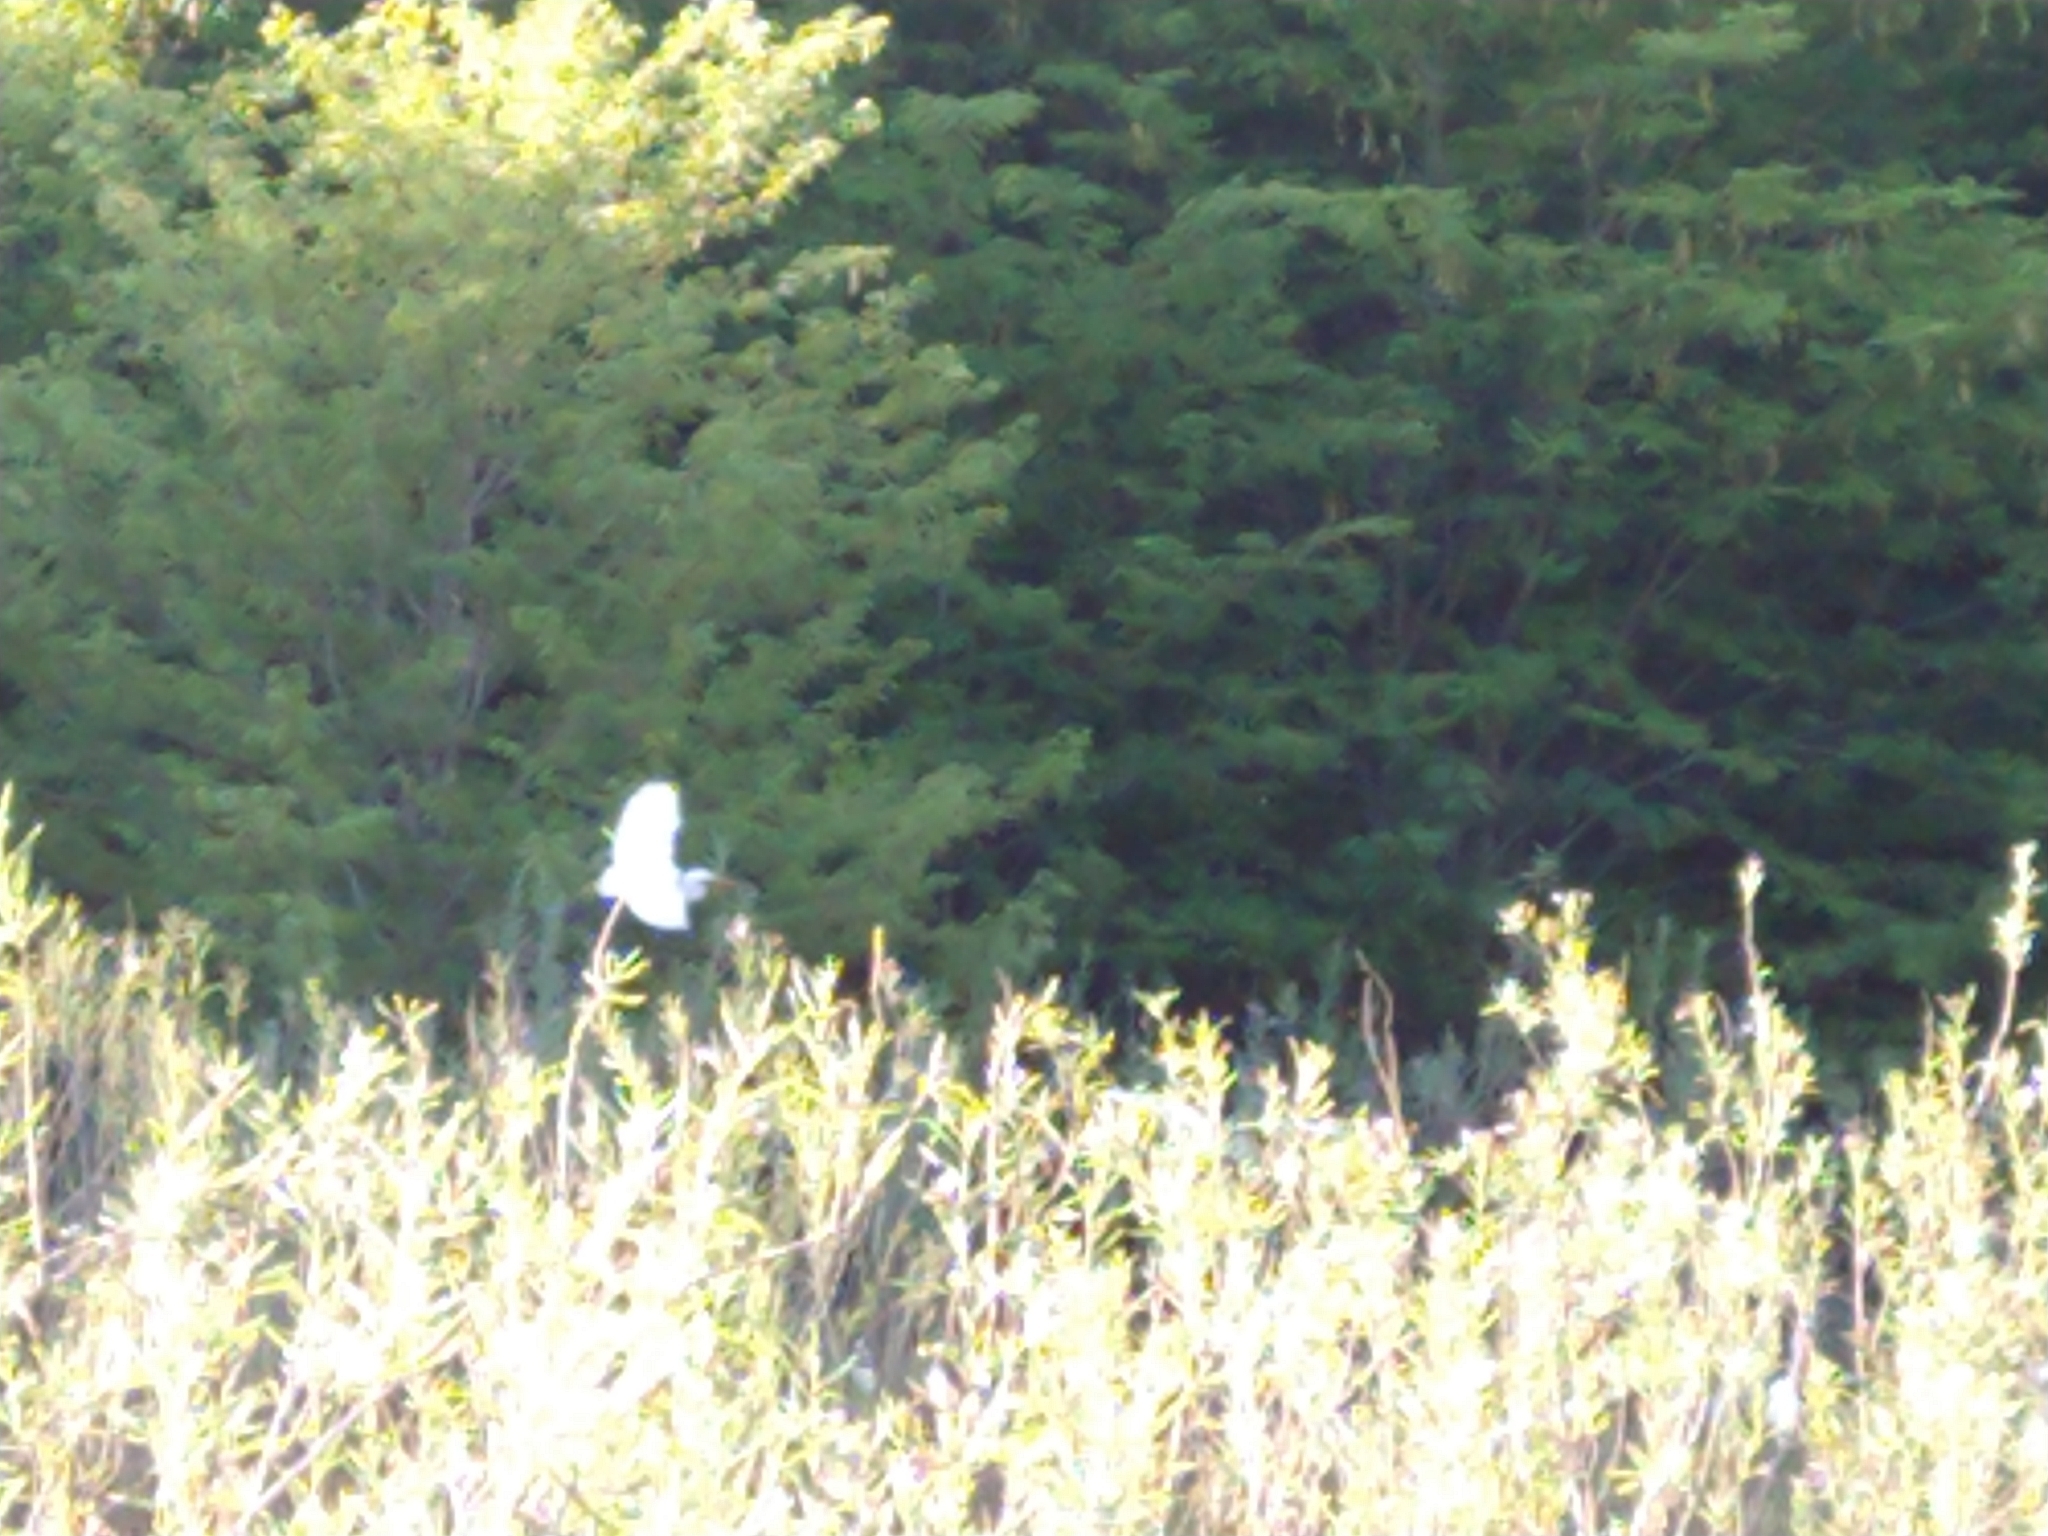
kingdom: Animalia
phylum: Chordata
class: Aves
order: Pelecaniformes
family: Ardeidae
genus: Ardea
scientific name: Ardea alba
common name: Great egret
